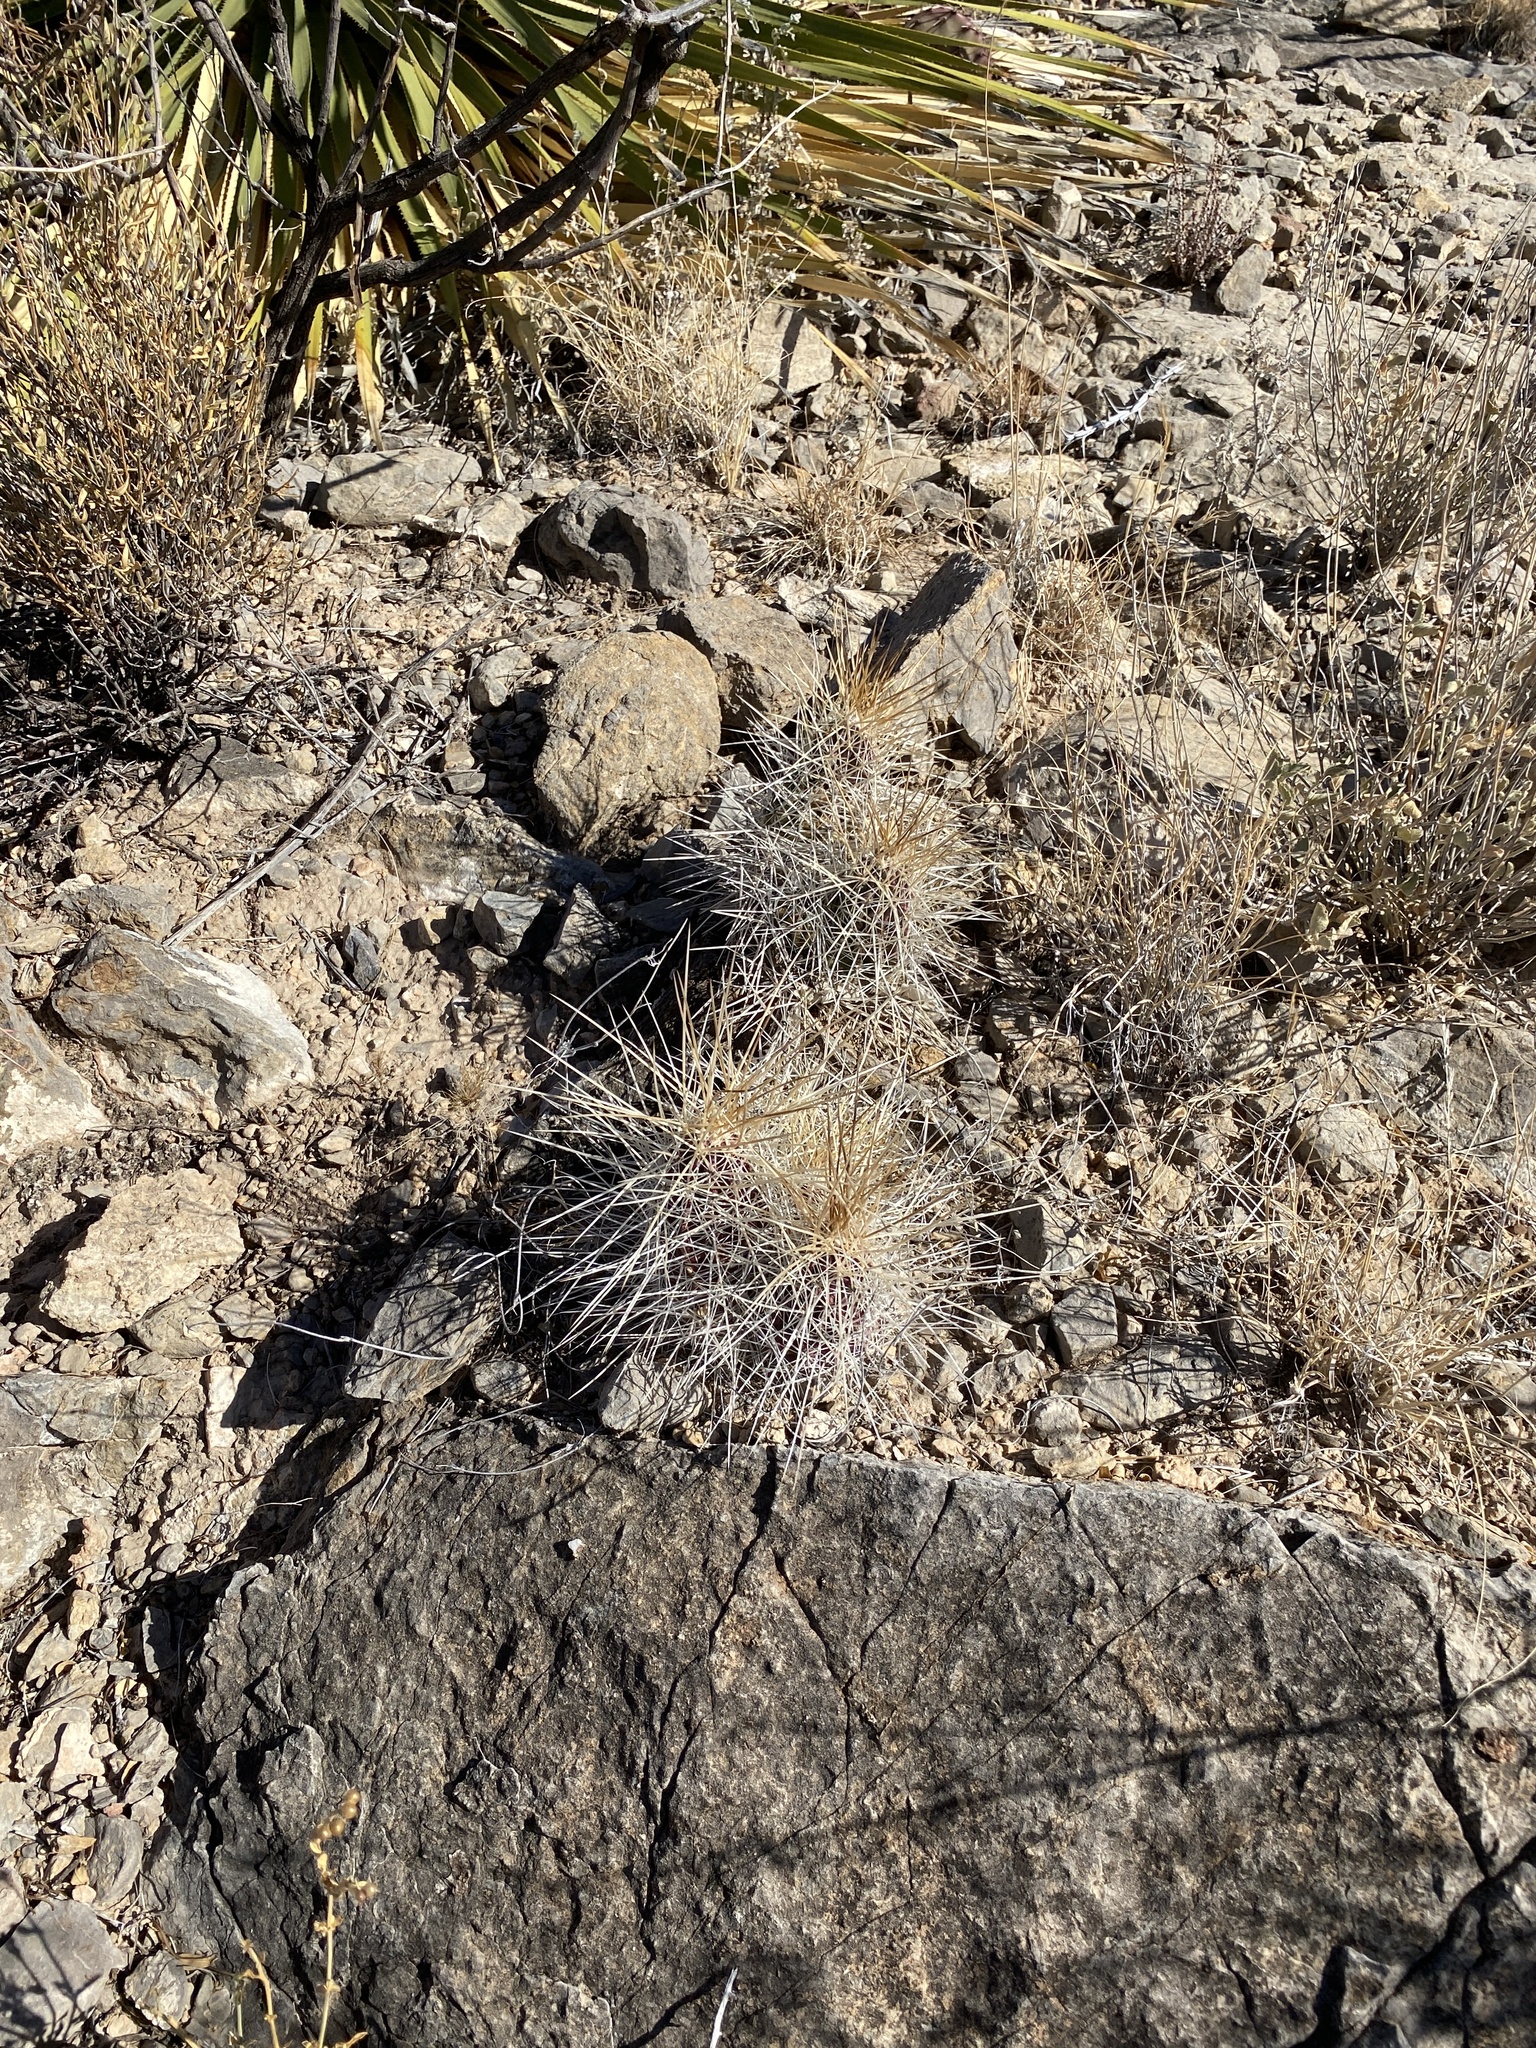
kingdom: Plantae
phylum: Tracheophyta
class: Magnoliopsida
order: Caryophyllales
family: Cactaceae
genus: Echinocereus
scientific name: Echinocereus stramineus
